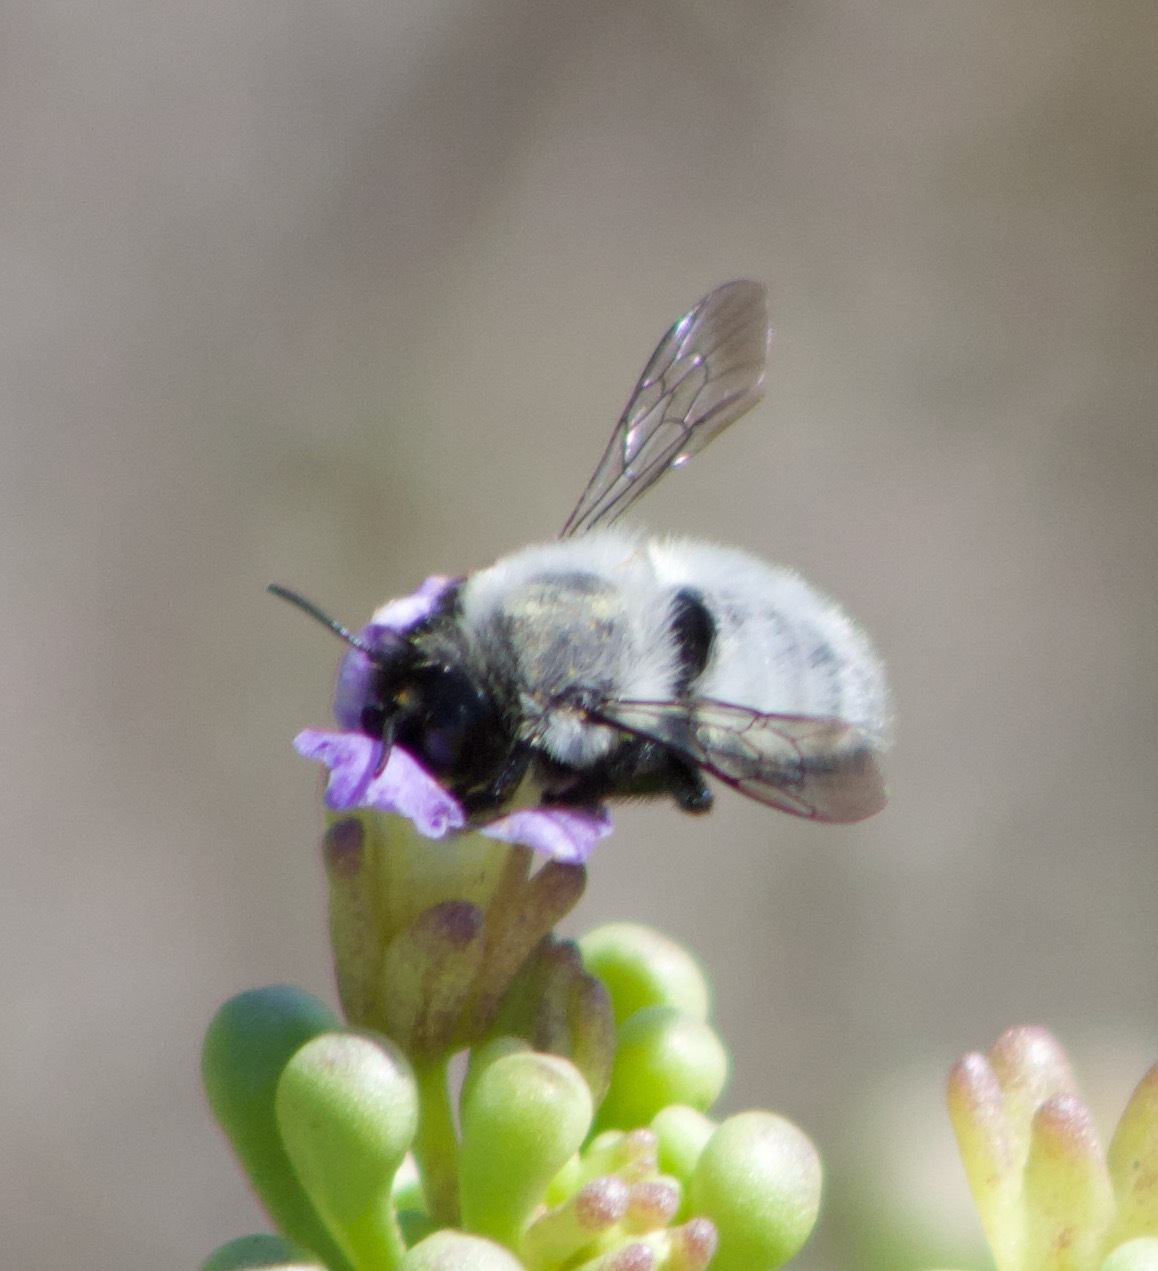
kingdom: Animalia
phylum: Arthropoda
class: Insecta
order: Hymenoptera
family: Megachilidae
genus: Megachile
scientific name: Megachile saulcyi
